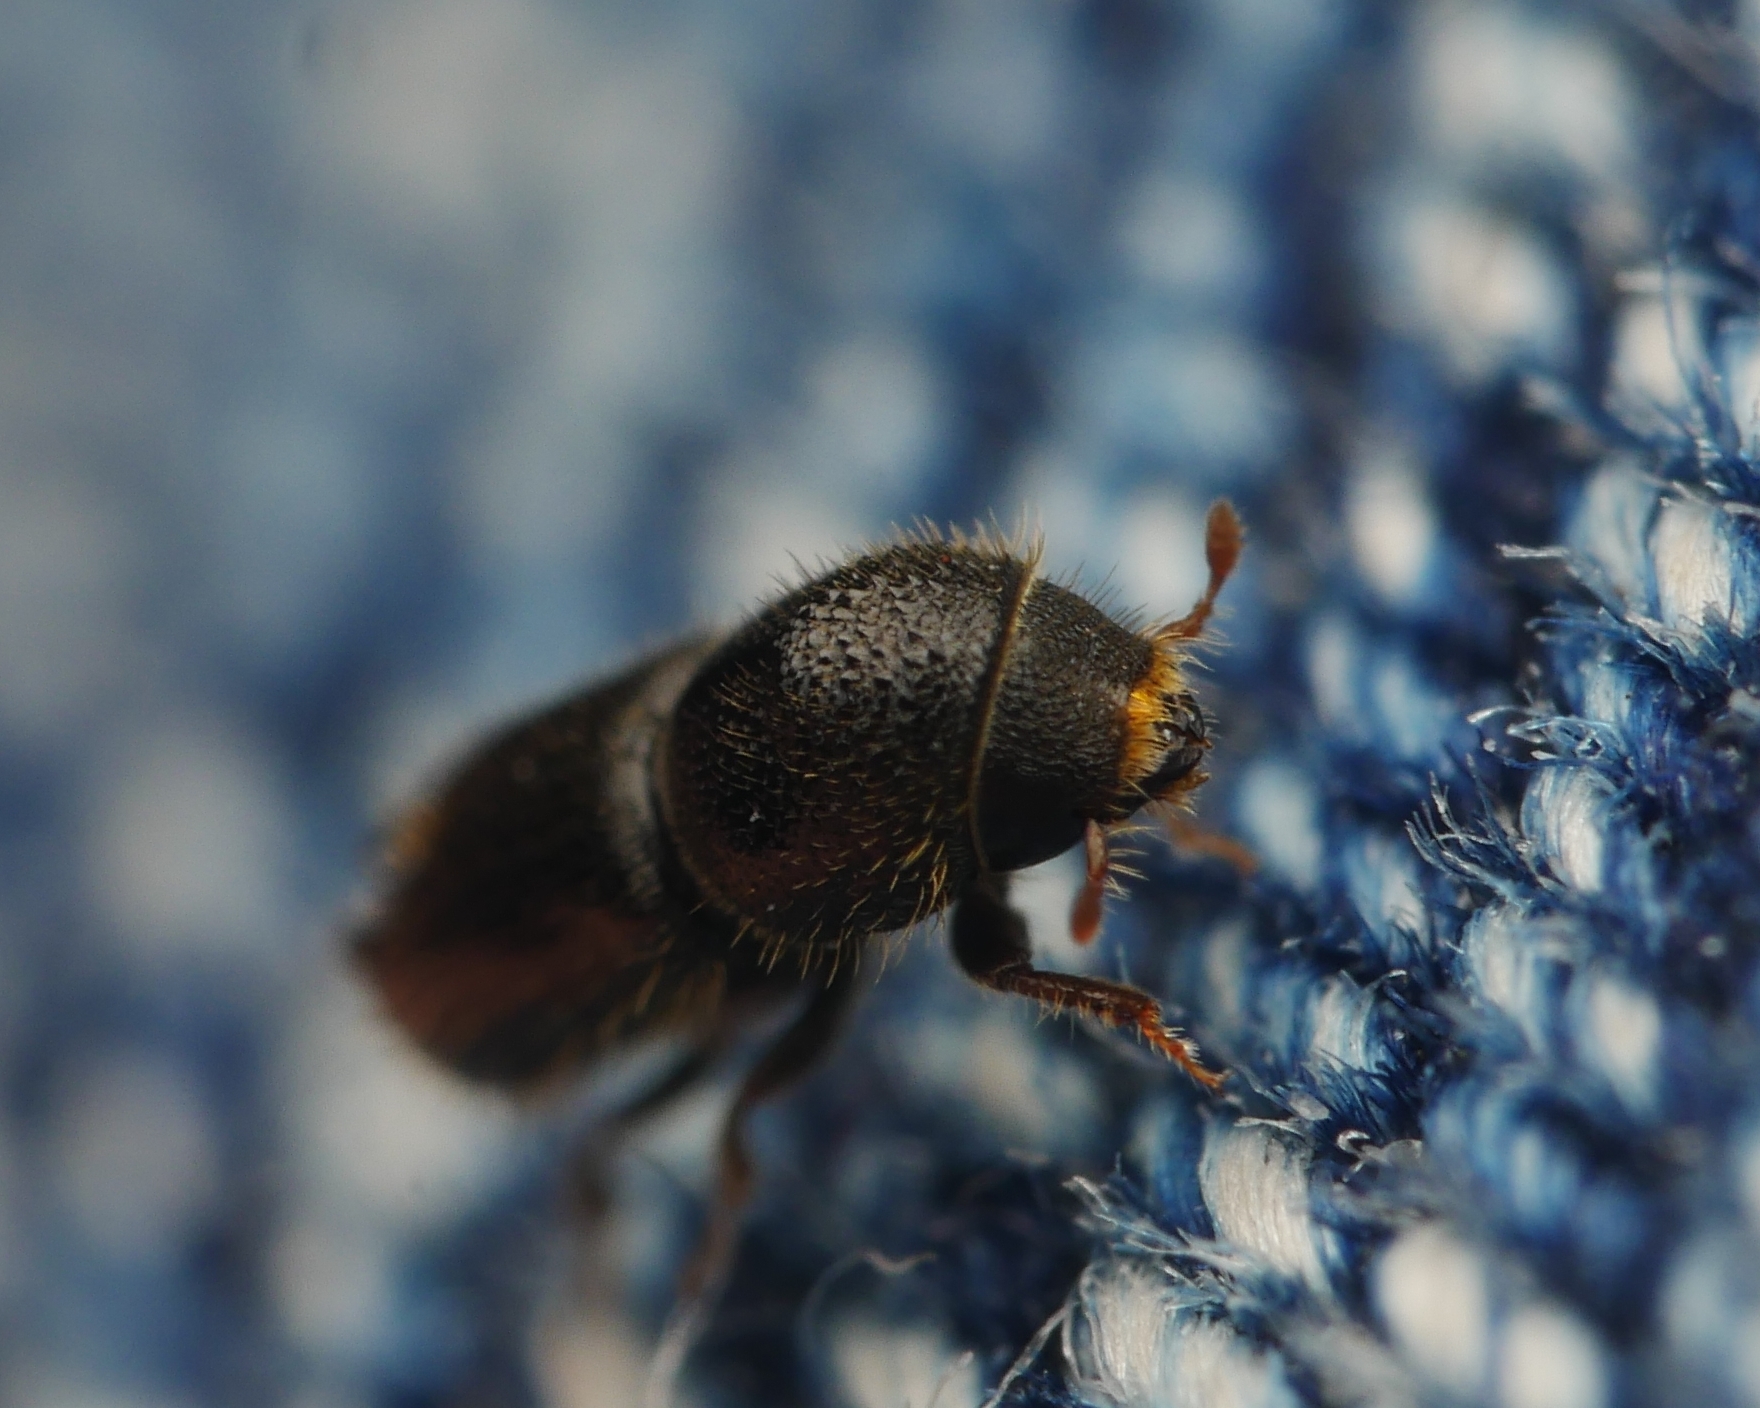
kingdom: Animalia
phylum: Arthropoda
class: Insecta
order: Coleoptera
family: Curculionidae
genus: Pityogenes
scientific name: Pityogenes bidentatus
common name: Two-toothed pine beetle
